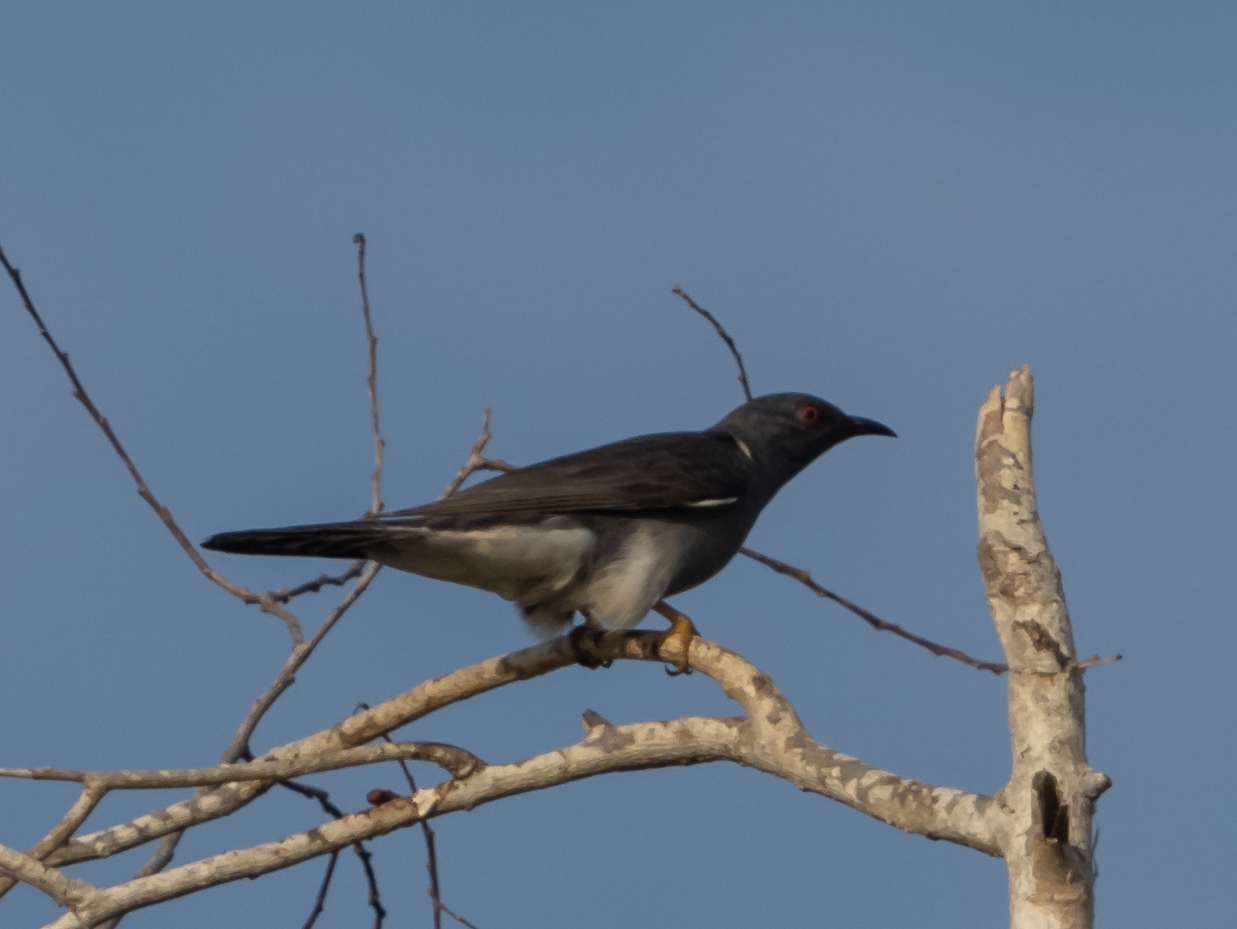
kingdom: Animalia
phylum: Chordata
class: Aves
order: Cuculiformes
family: Cuculidae
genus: Cacomantis
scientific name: Cacomantis passerinus
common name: Grey-bellied cuckoo
